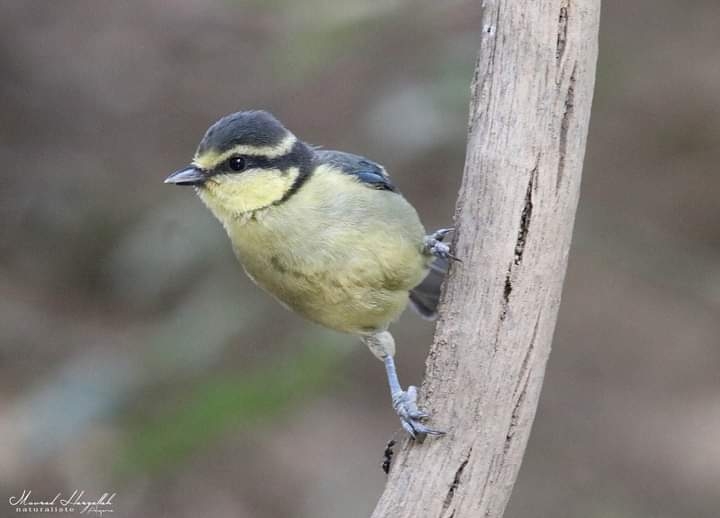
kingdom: Animalia
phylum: Chordata
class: Aves
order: Passeriformes
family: Paridae
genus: Cyanistes
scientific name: Cyanistes teneriffae
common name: African blue tit
